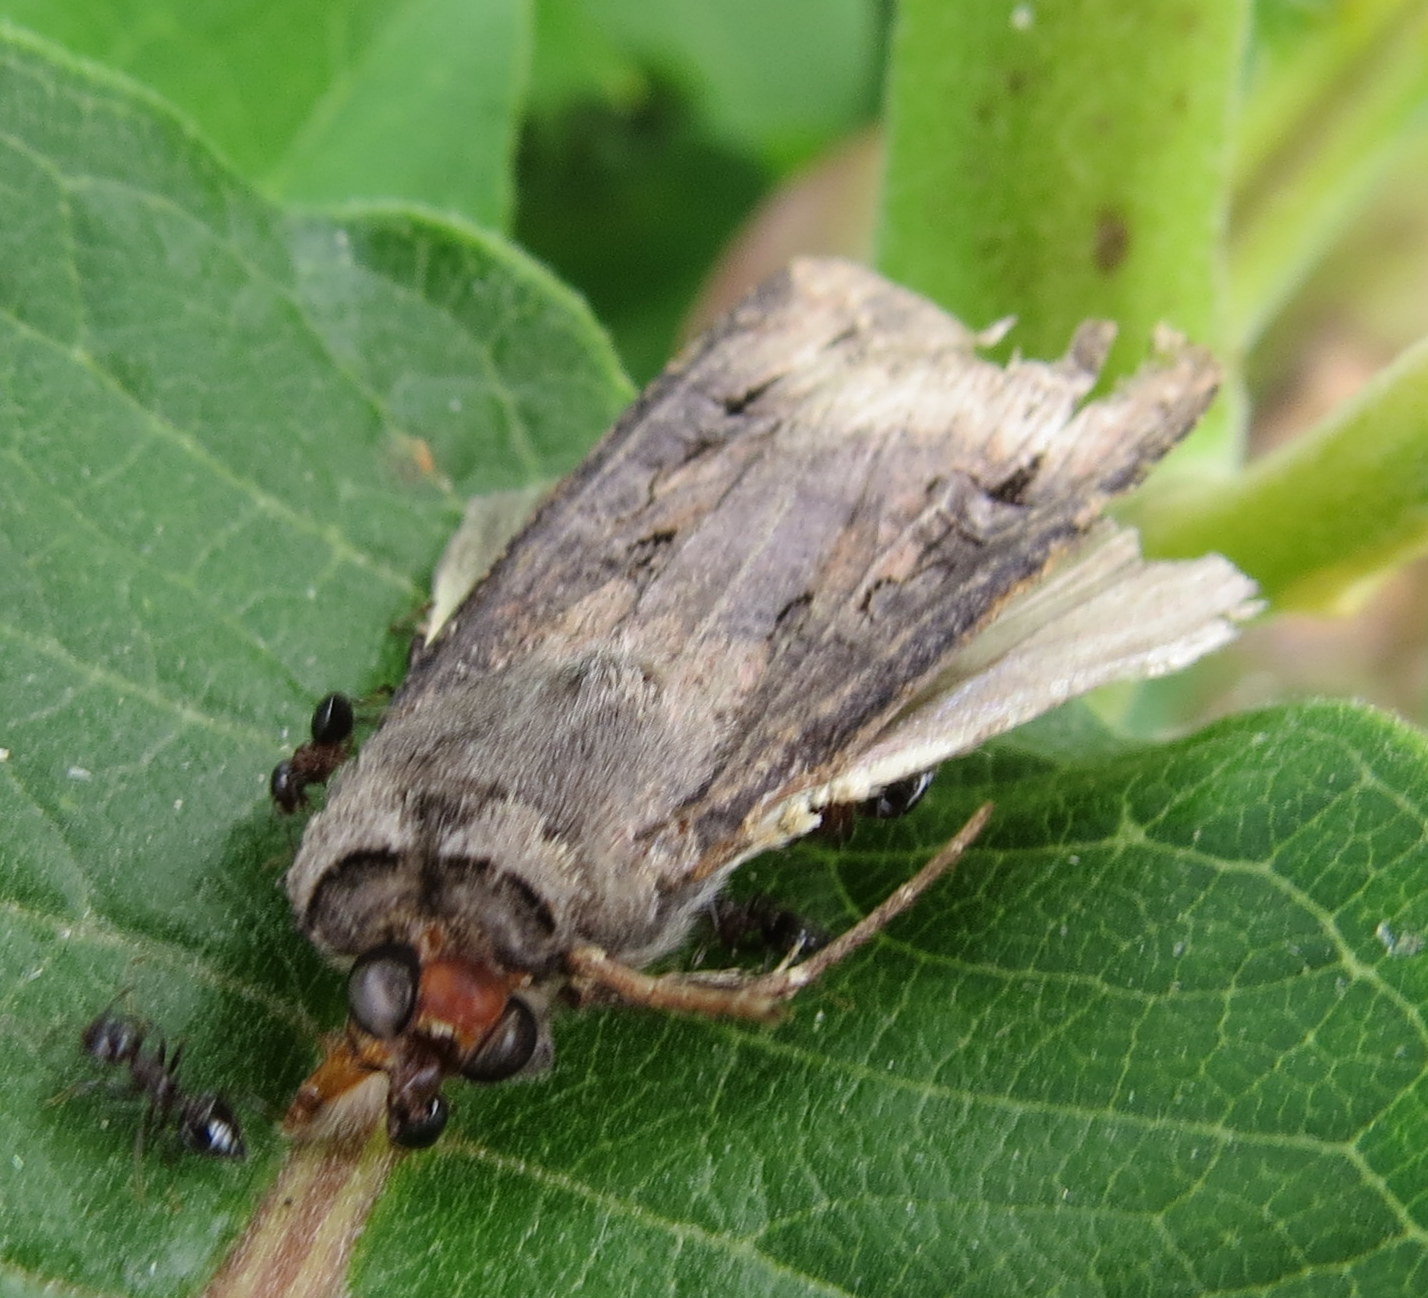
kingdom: Animalia
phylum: Arthropoda
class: Insecta
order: Lepidoptera
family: Noctuidae
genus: Agrotis
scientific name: Agrotis ipsilon
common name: Dark sword-grass
